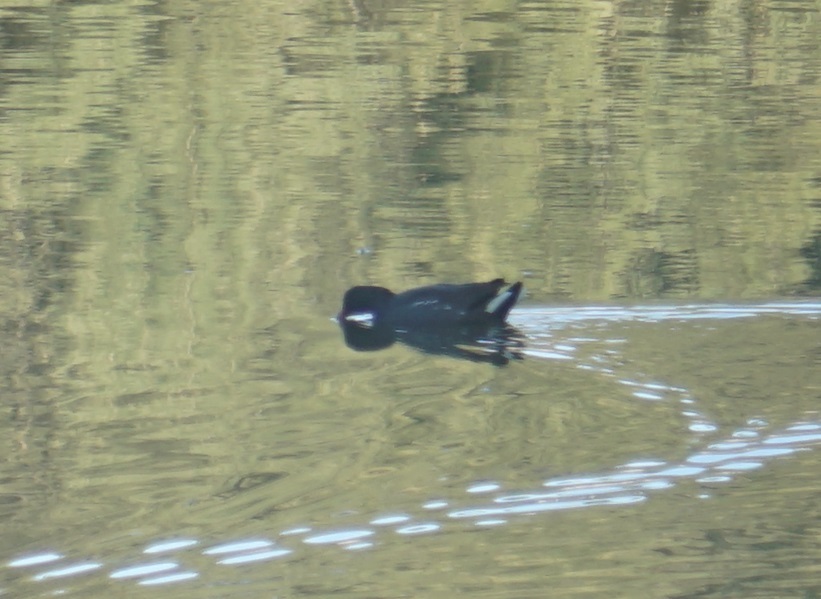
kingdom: Animalia
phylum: Chordata
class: Aves
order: Gruiformes
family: Rallidae
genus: Gallinula
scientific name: Gallinula tenebrosa
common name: Dusky moorhen
